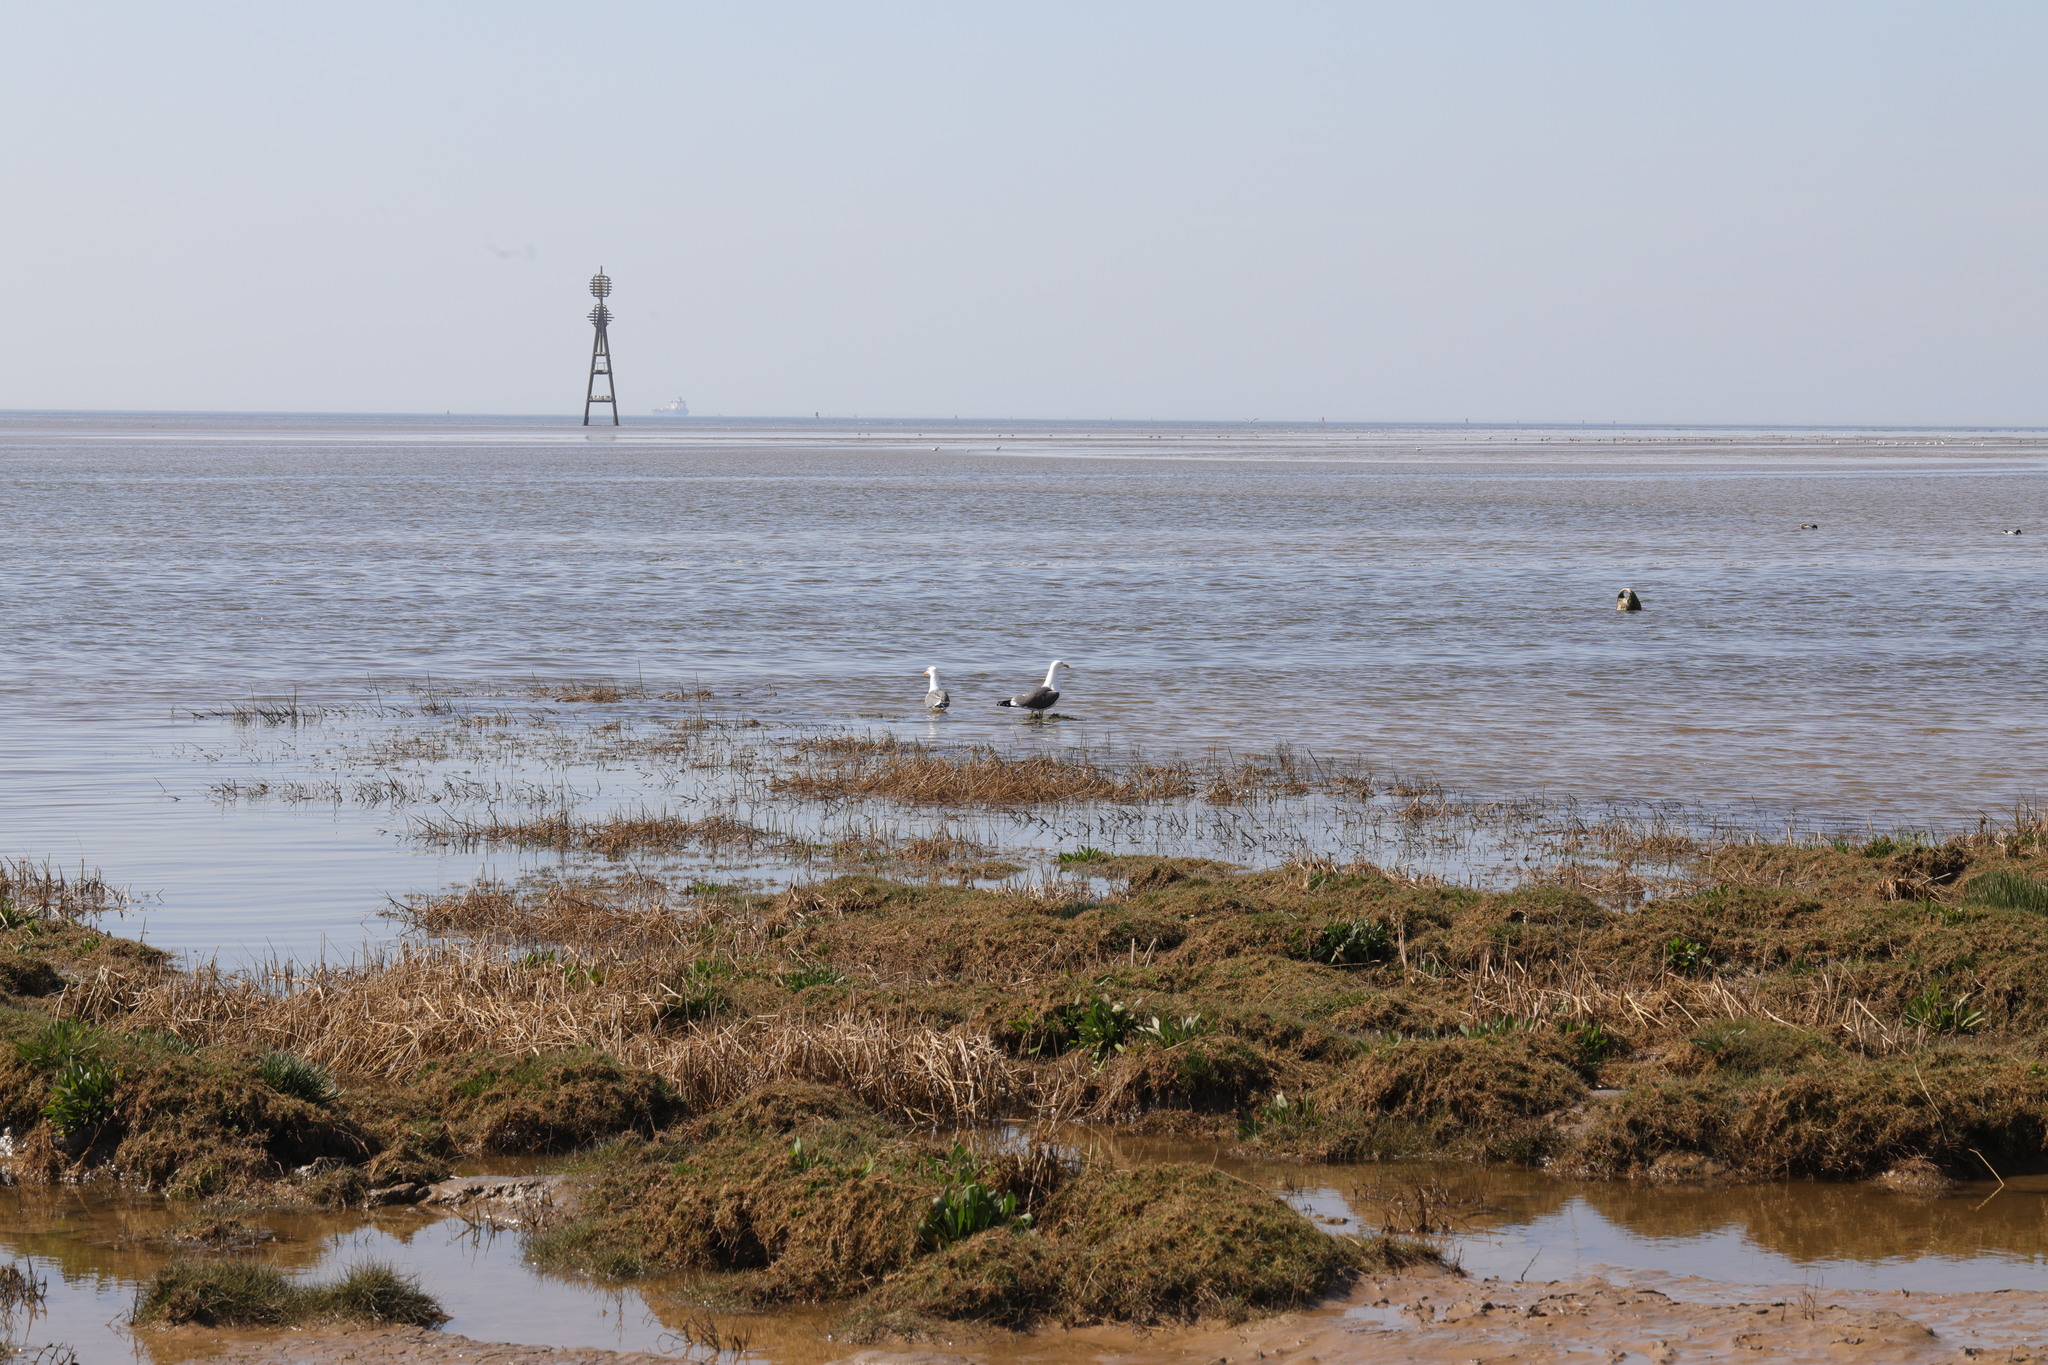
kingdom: Animalia
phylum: Chordata
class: Aves
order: Charadriiformes
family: Laridae
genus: Larus
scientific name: Larus fuscus
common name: Lesser black-backed gull
